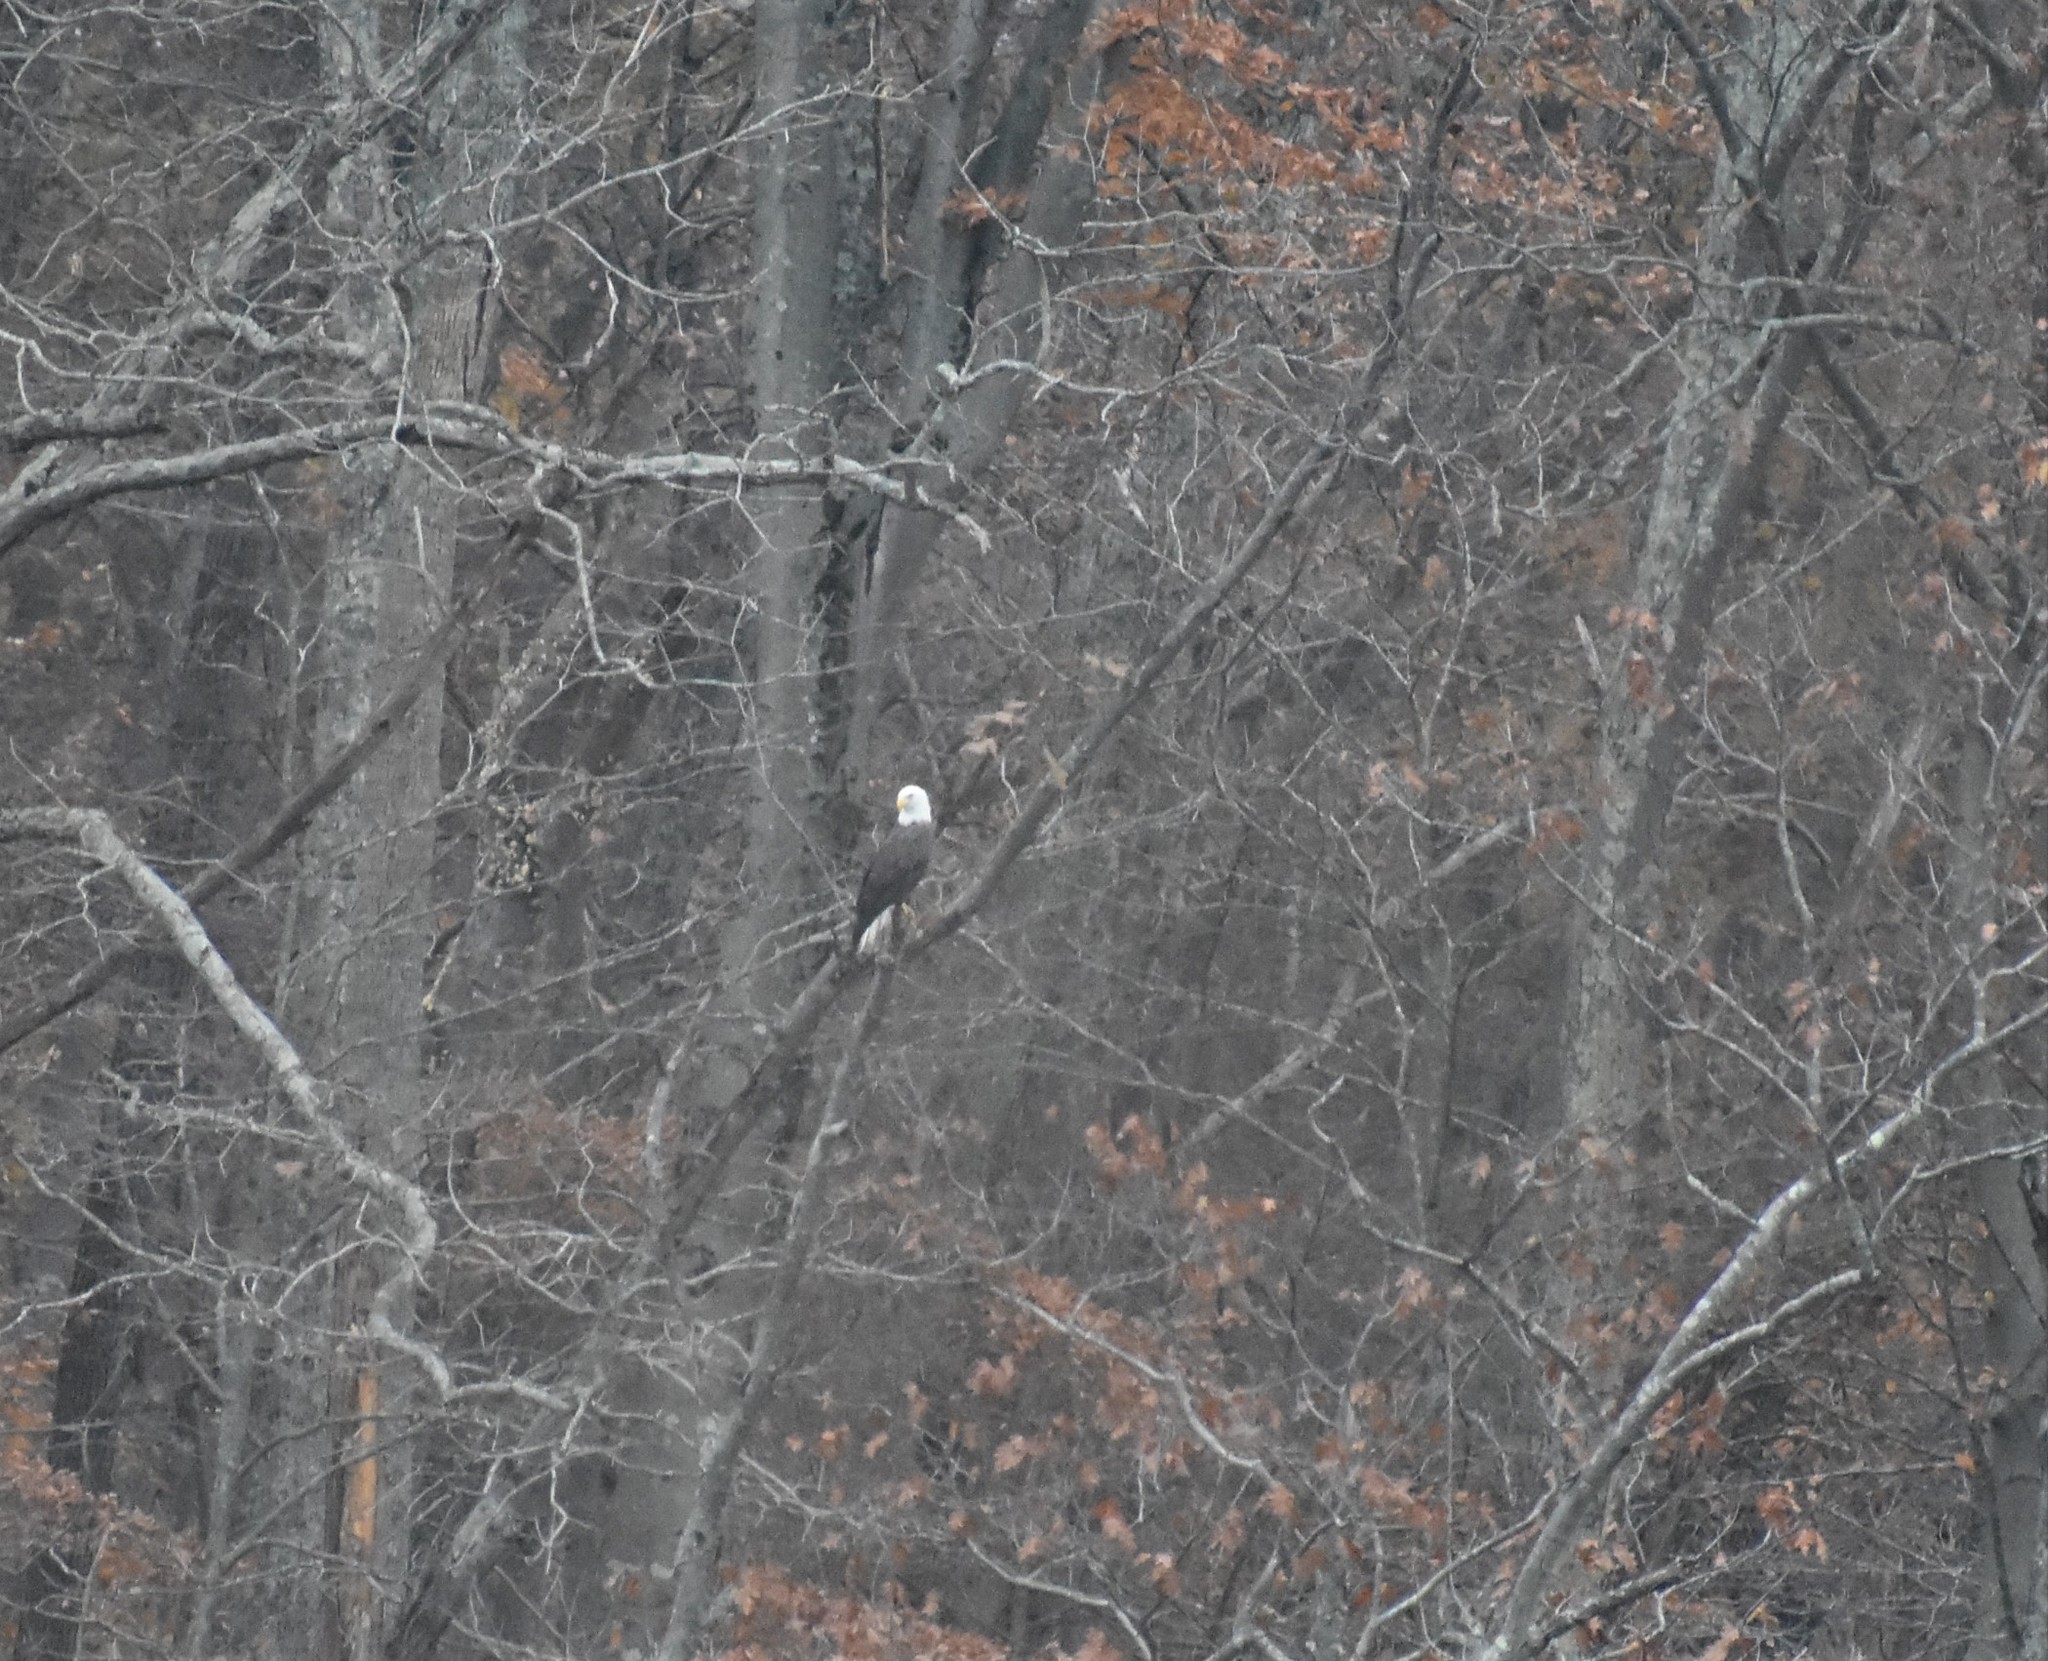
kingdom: Animalia
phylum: Chordata
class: Aves
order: Accipitriformes
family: Accipitridae
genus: Haliaeetus
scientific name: Haliaeetus leucocephalus
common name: Bald eagle
